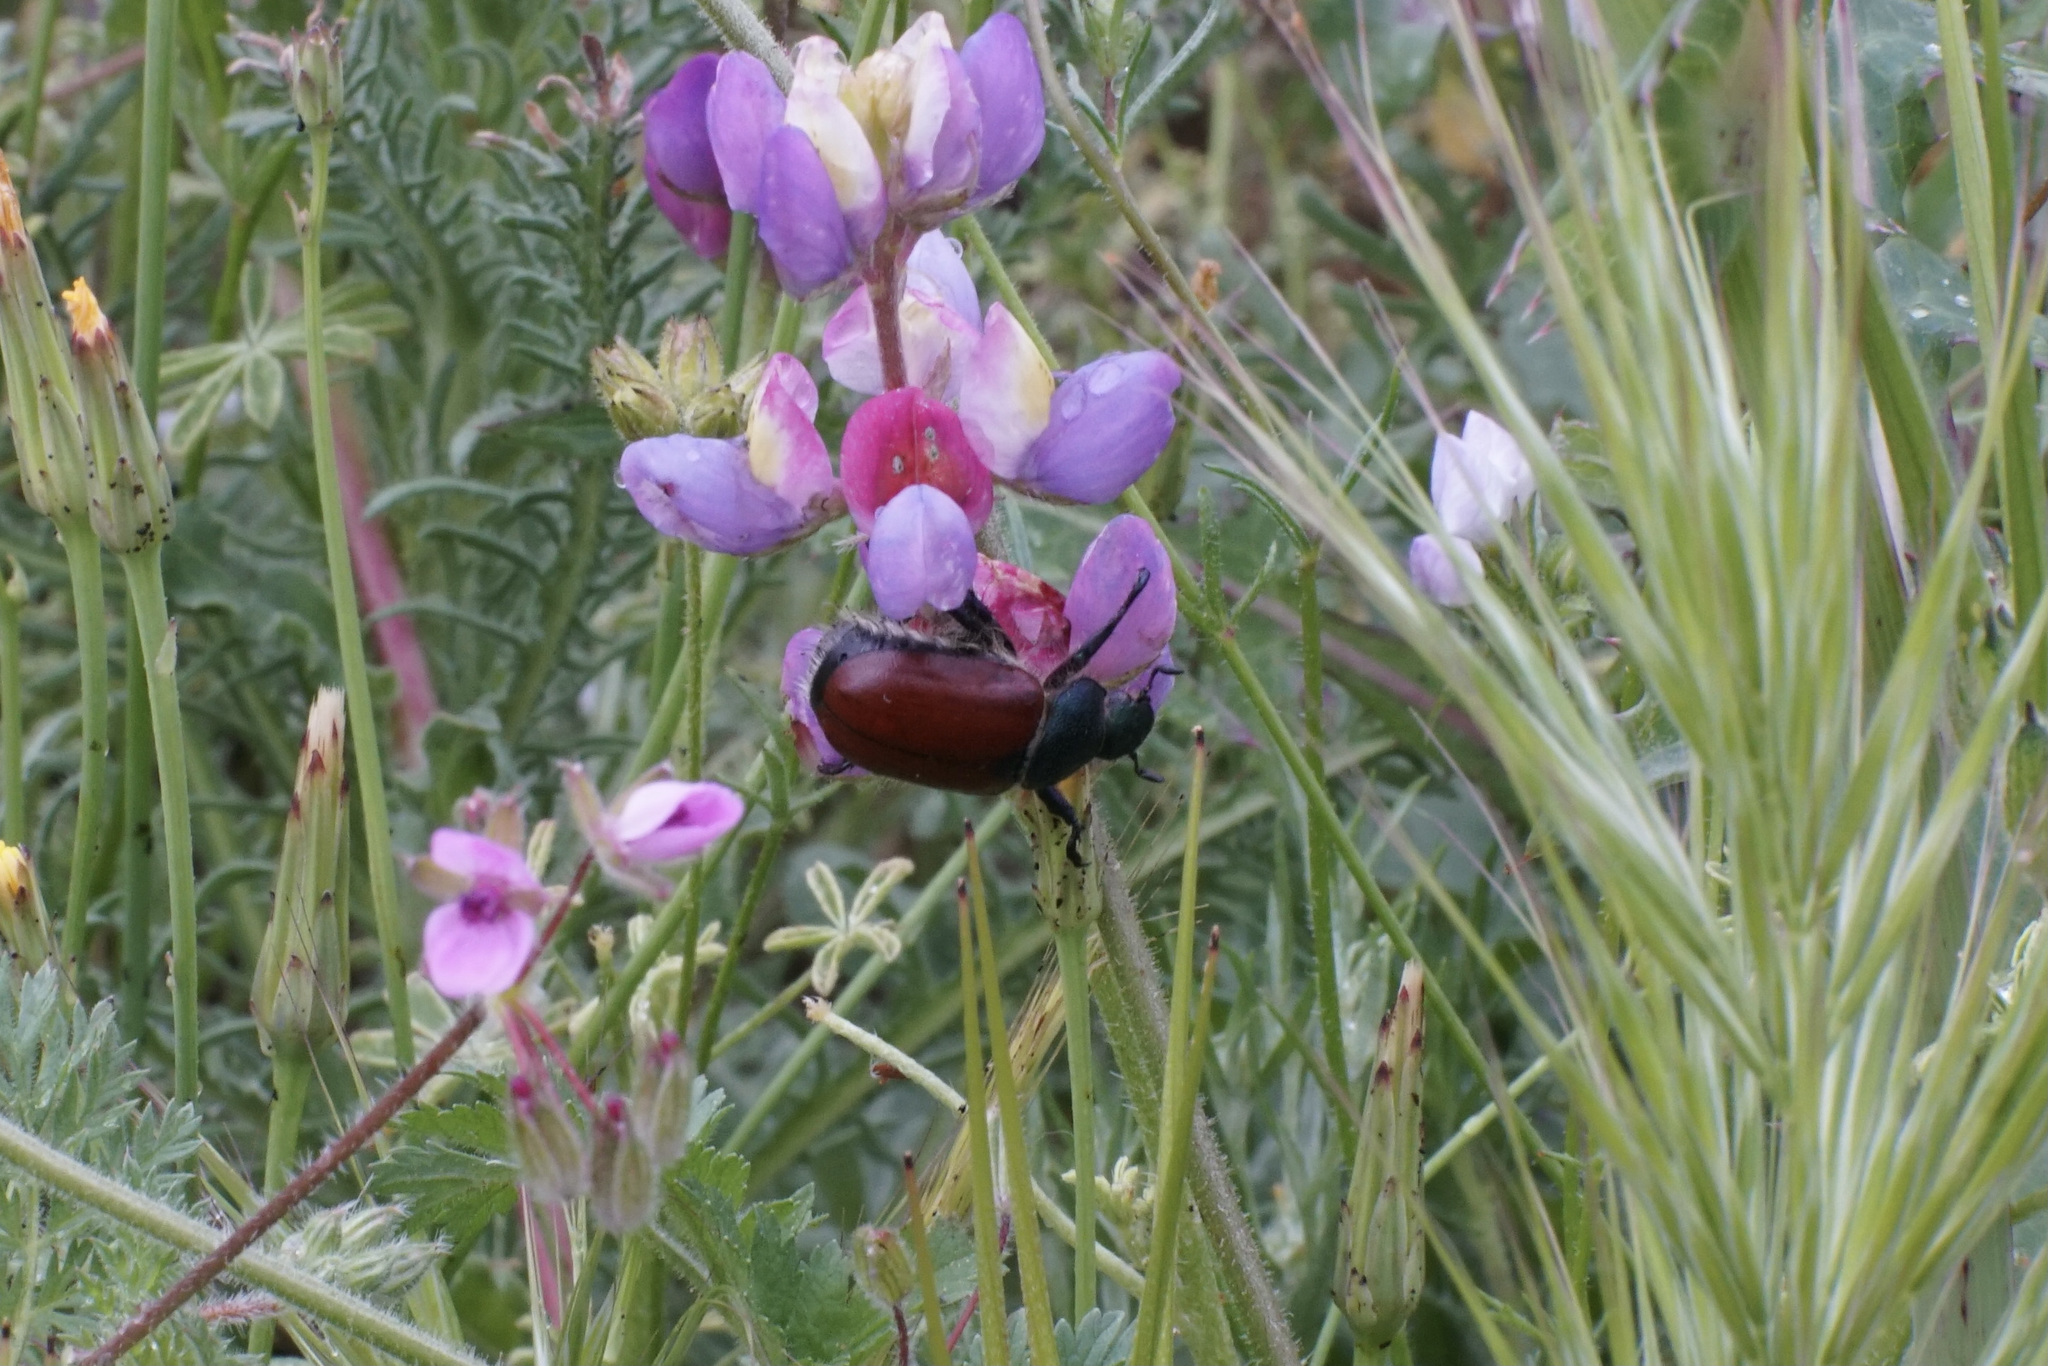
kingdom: Animalia
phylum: Arthropoda
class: Insecta
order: Coleoptera
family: Scarabaeidae
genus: Paracotalpa
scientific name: Paracotalpa ursina
